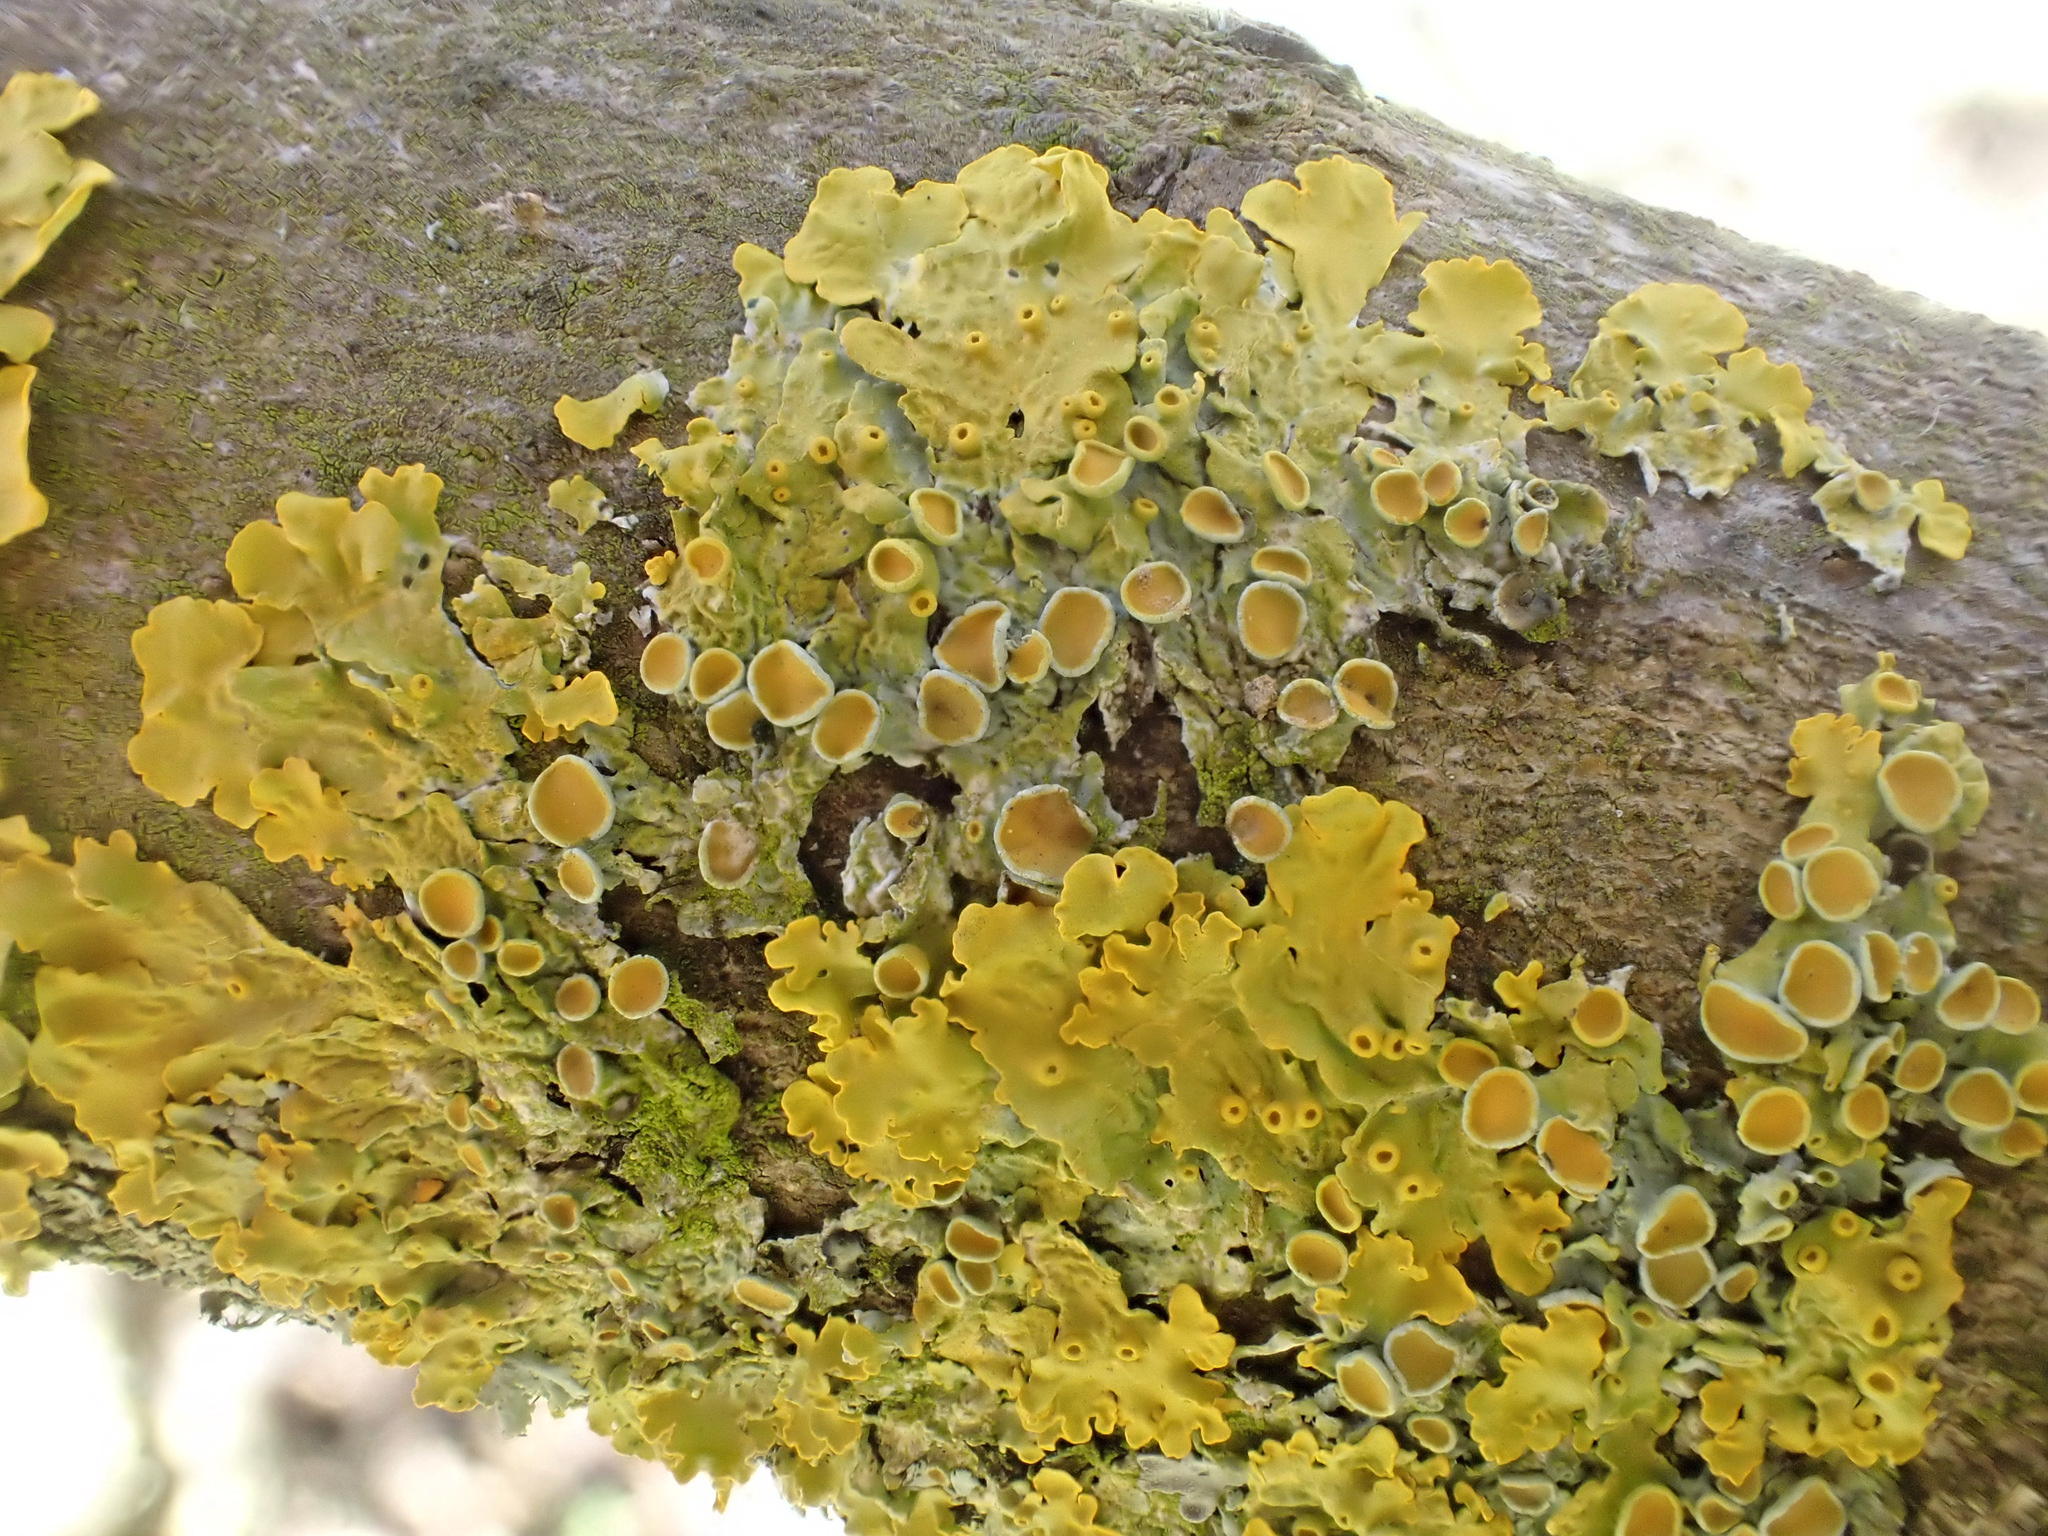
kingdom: Fungi
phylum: Ascomycota
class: Lecanoromycetes
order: Teloschistales
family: Teloschistaceae
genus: Xanthoria
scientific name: Xanthoria parietina
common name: Common orange lichen
